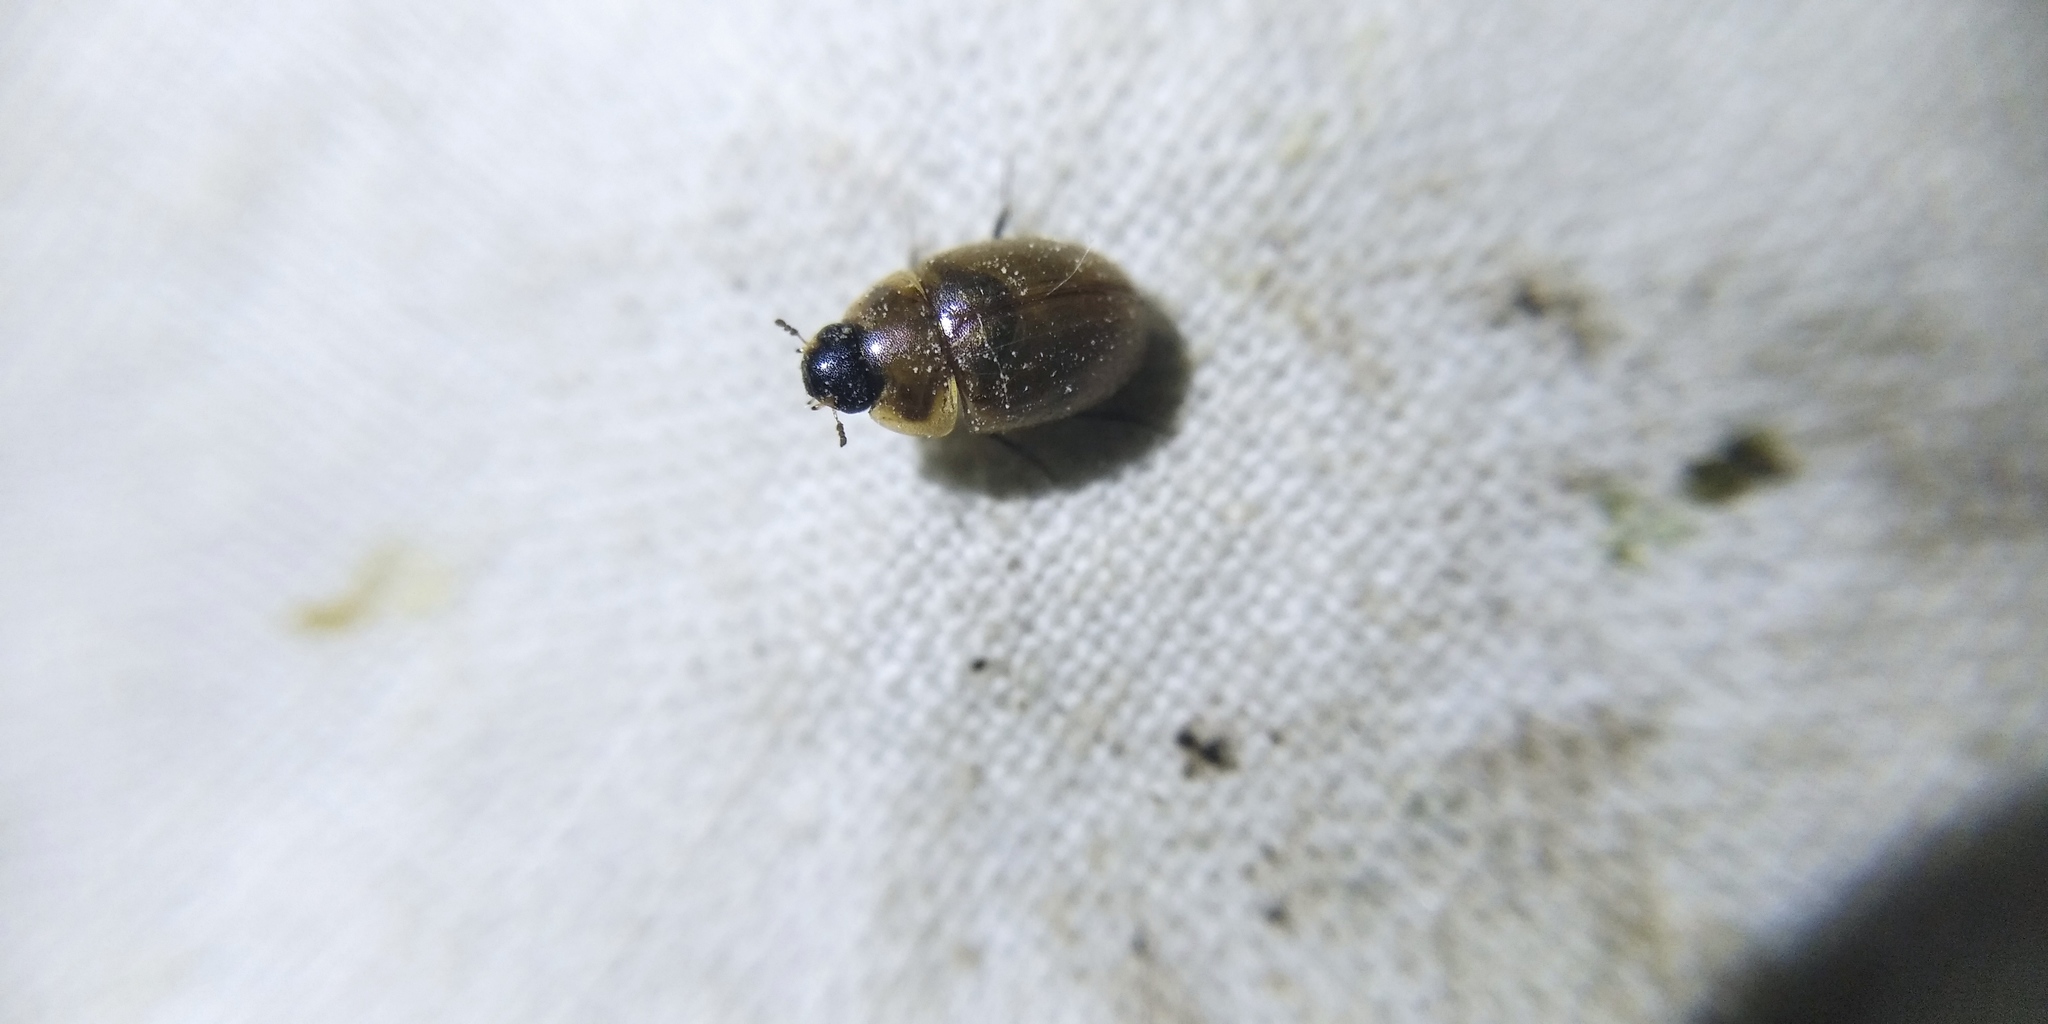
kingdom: Animalia
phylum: Arthropoda
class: Insecta
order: Coleoptera
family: Hydrophilidae
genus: Enochrus
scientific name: Enochrus melanocephalus
